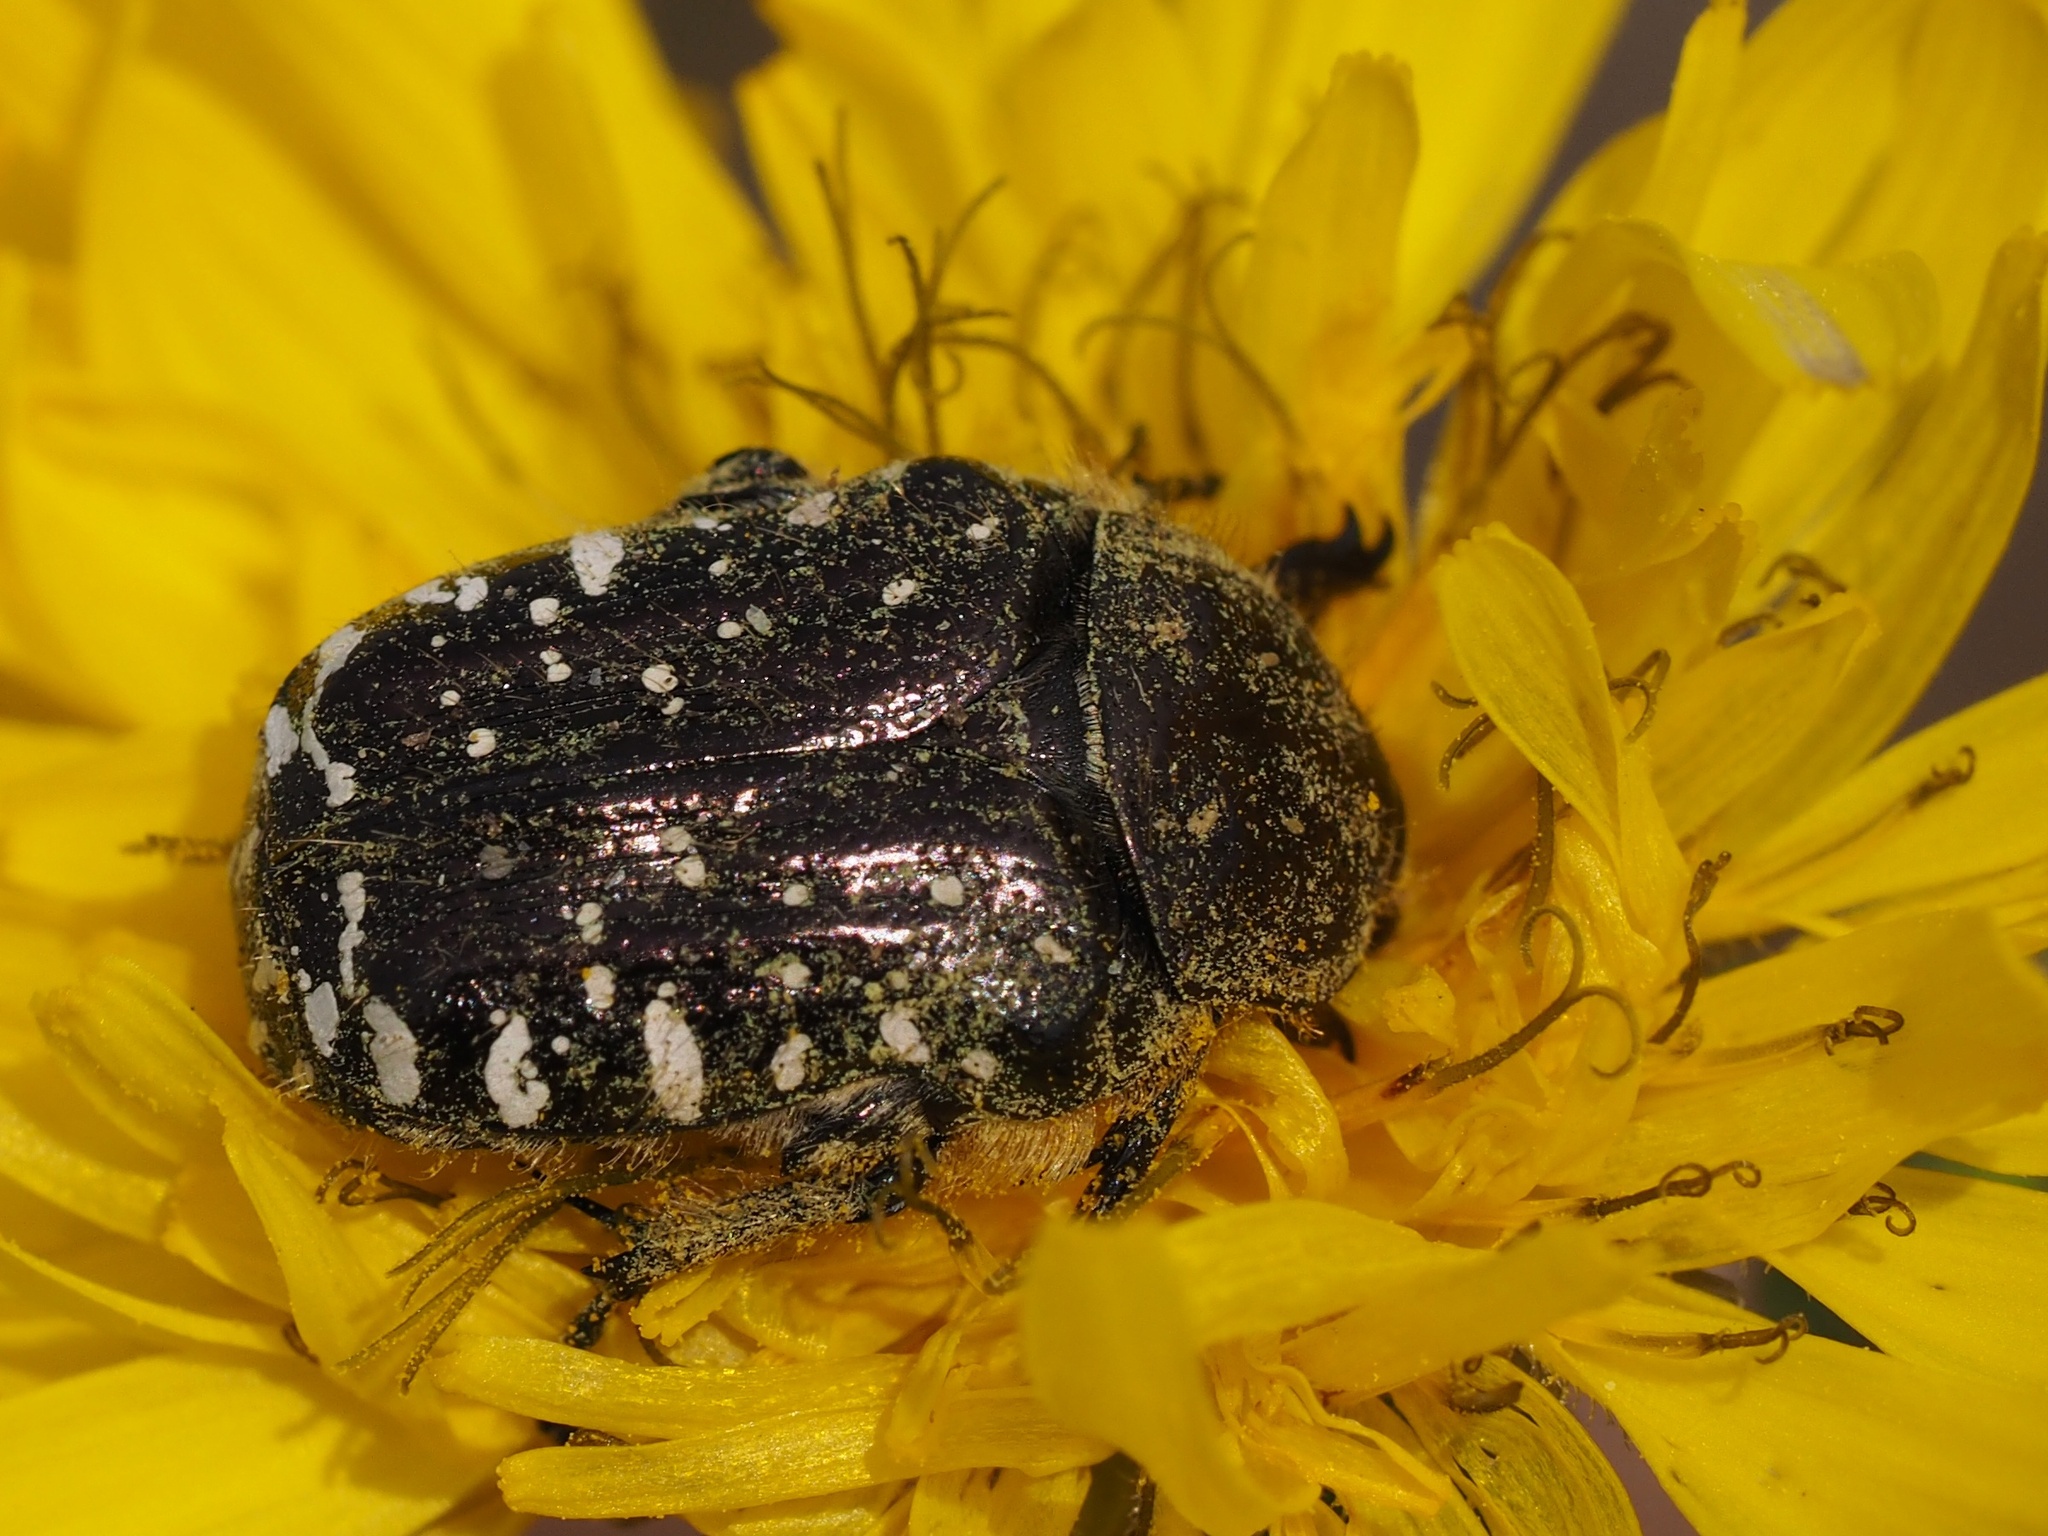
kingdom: Animalia
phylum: Arthropoda
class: Insecta
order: Coleoptera
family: Scarabaeidae
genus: Oxythyrea
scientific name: Oxythyrea funesta
